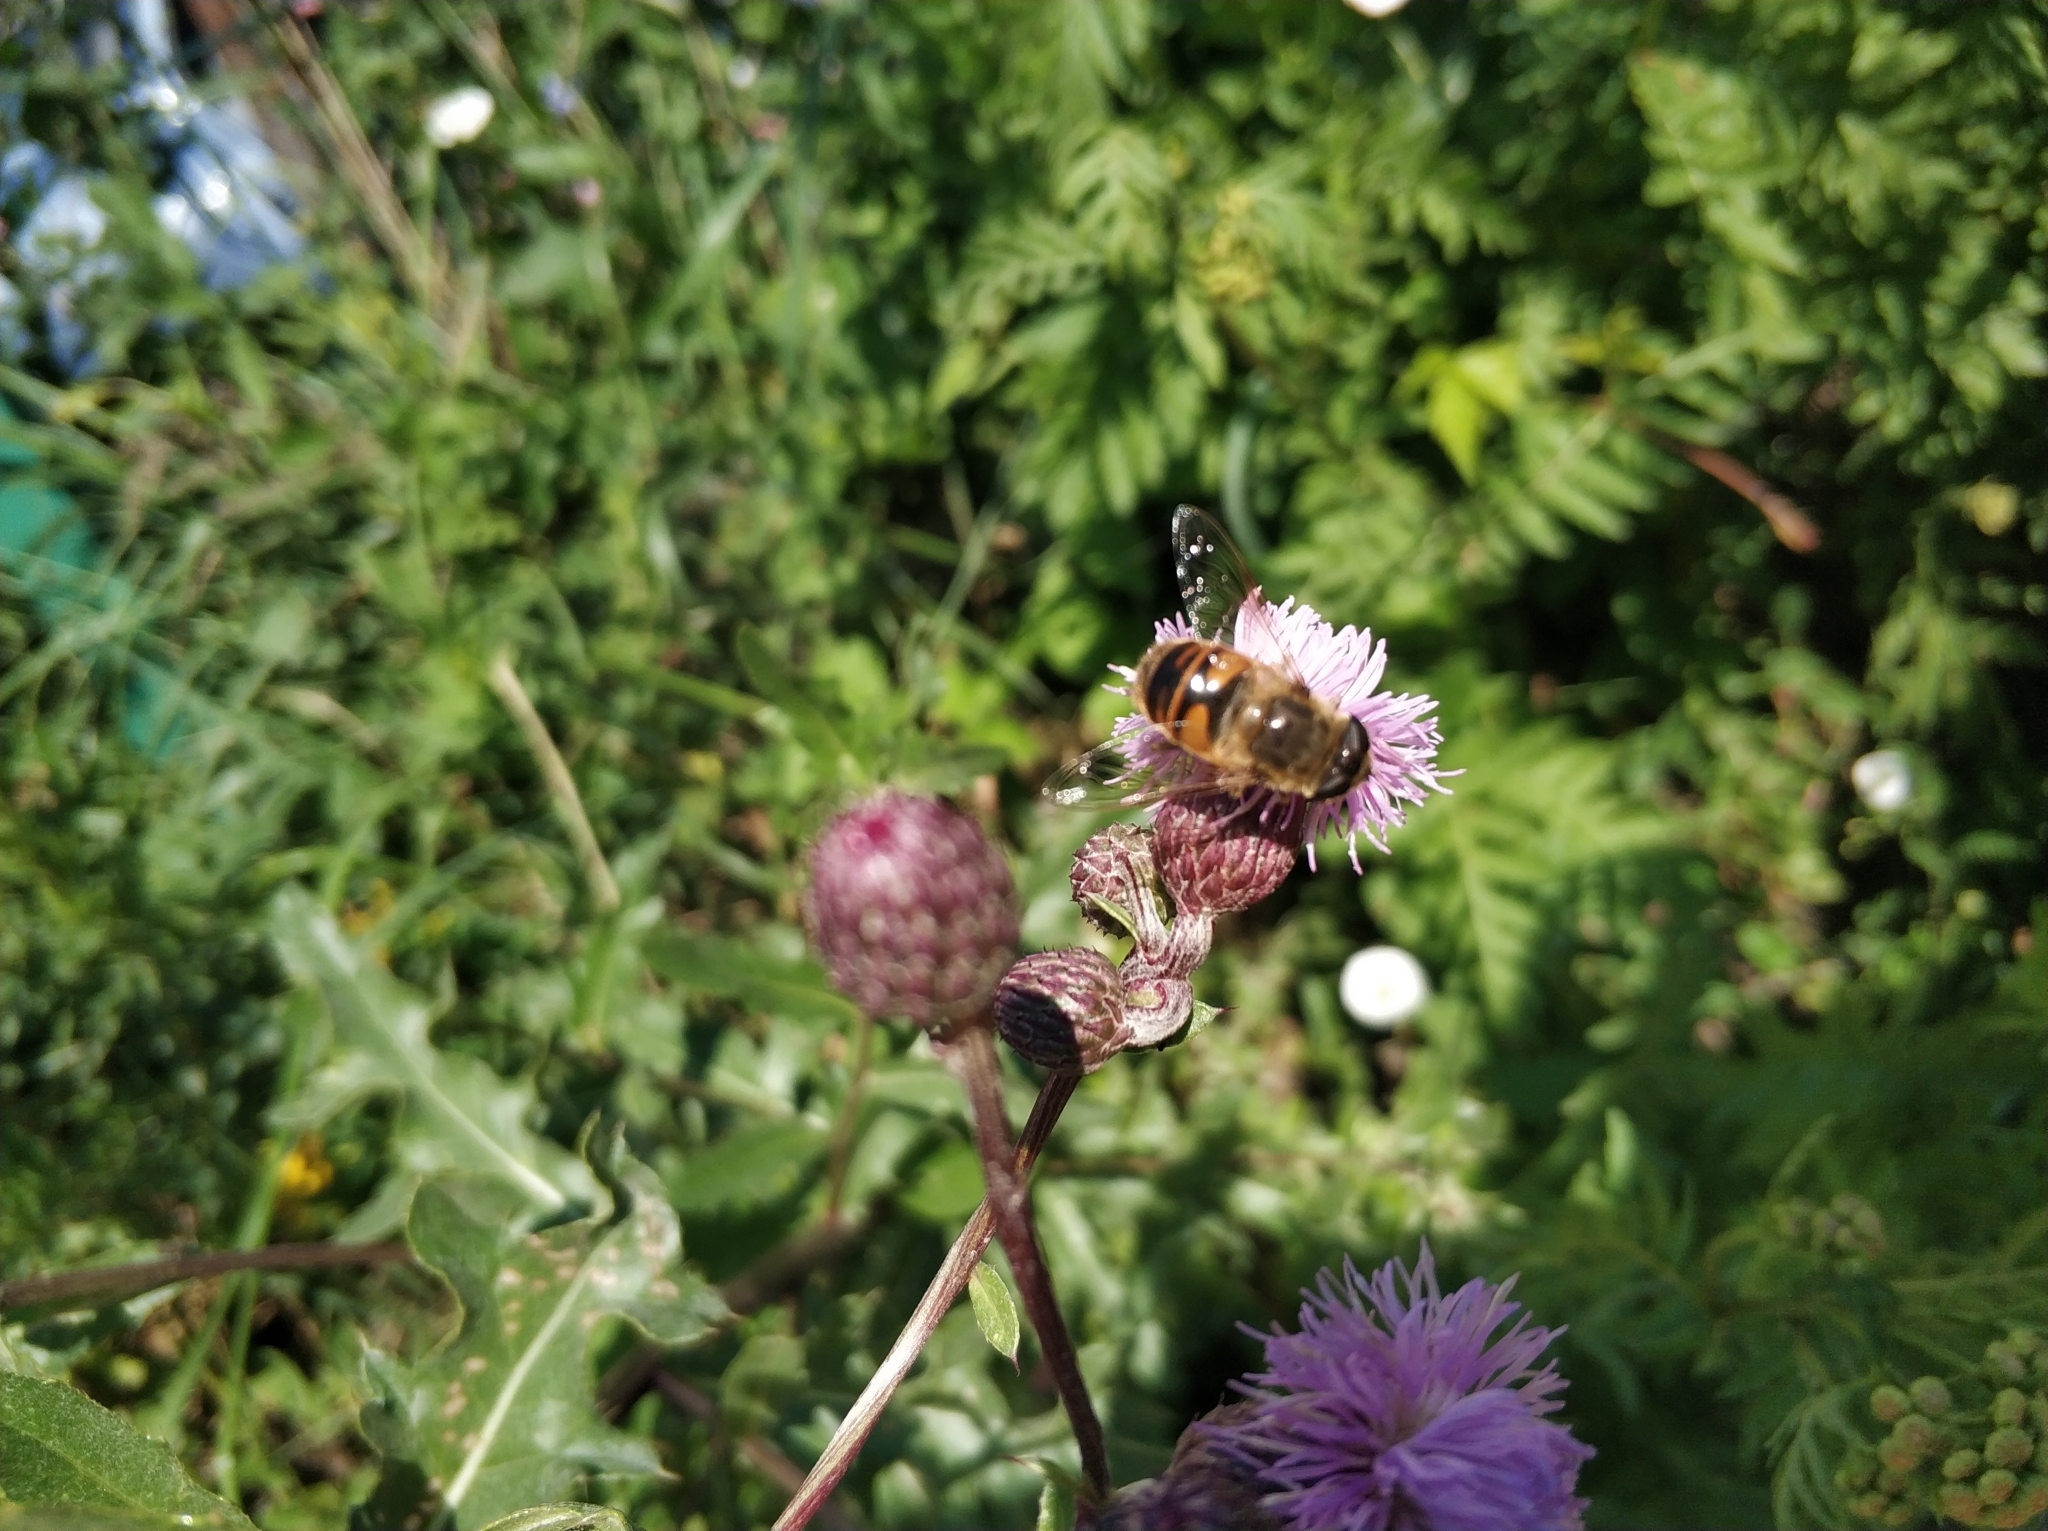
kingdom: Animalia
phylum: Arthropoda
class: Insecta
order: Diptera
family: Syrphidae
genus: Eristalis
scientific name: Eristalis tenax
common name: Drone fly
